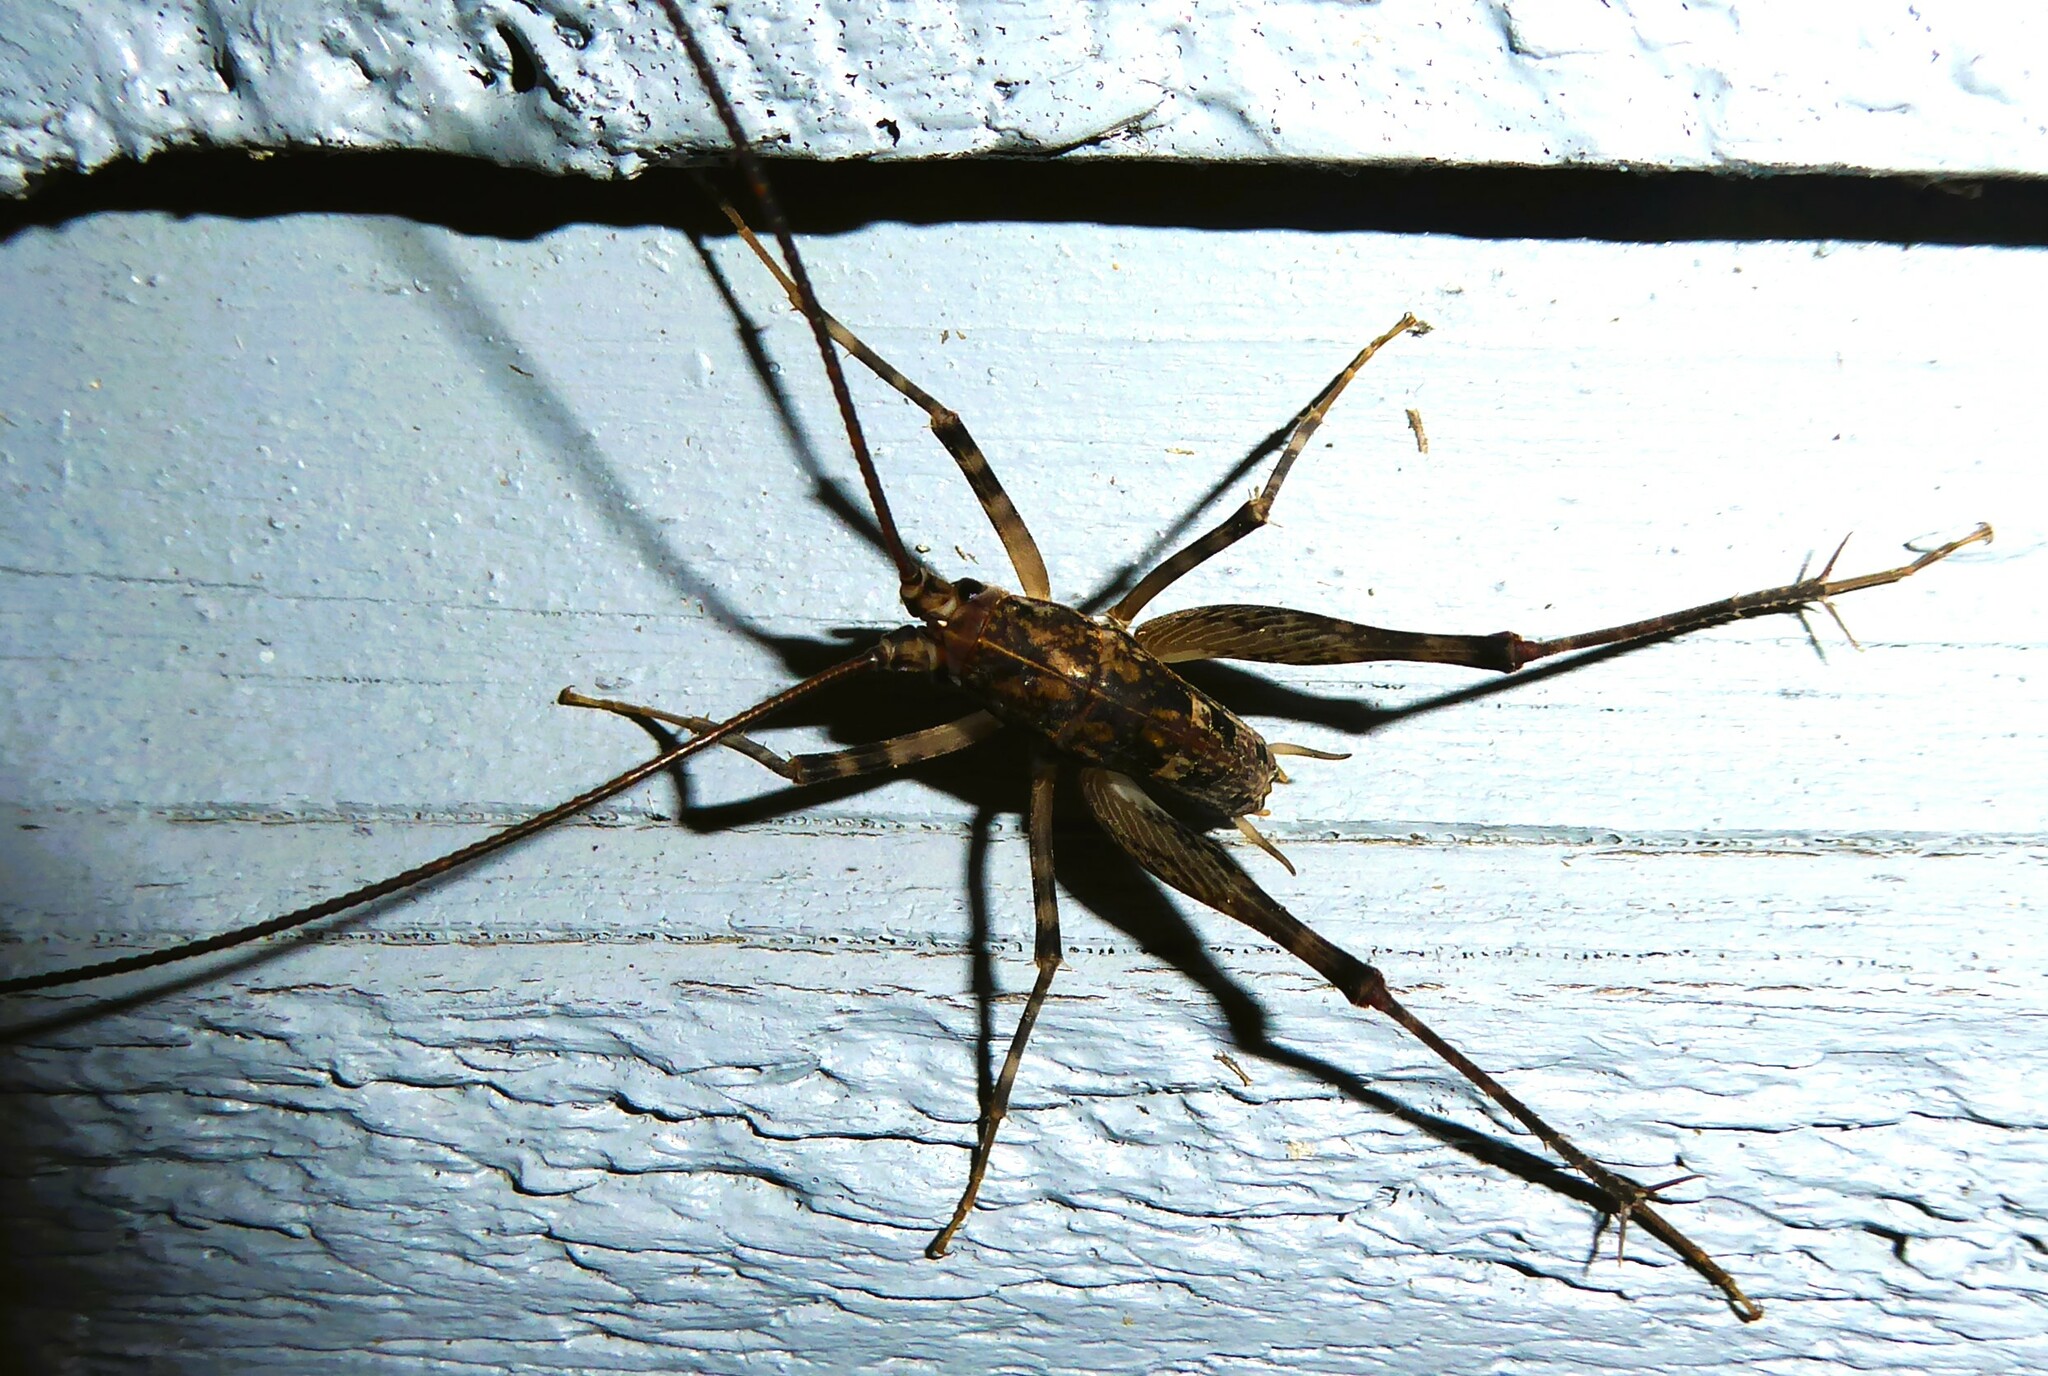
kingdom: Animalia
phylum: Arthropoda
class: Insecta
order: Orthoptera
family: Rhaphidophoridae
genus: Pleioplectron
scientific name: Pleioplectron simplex
